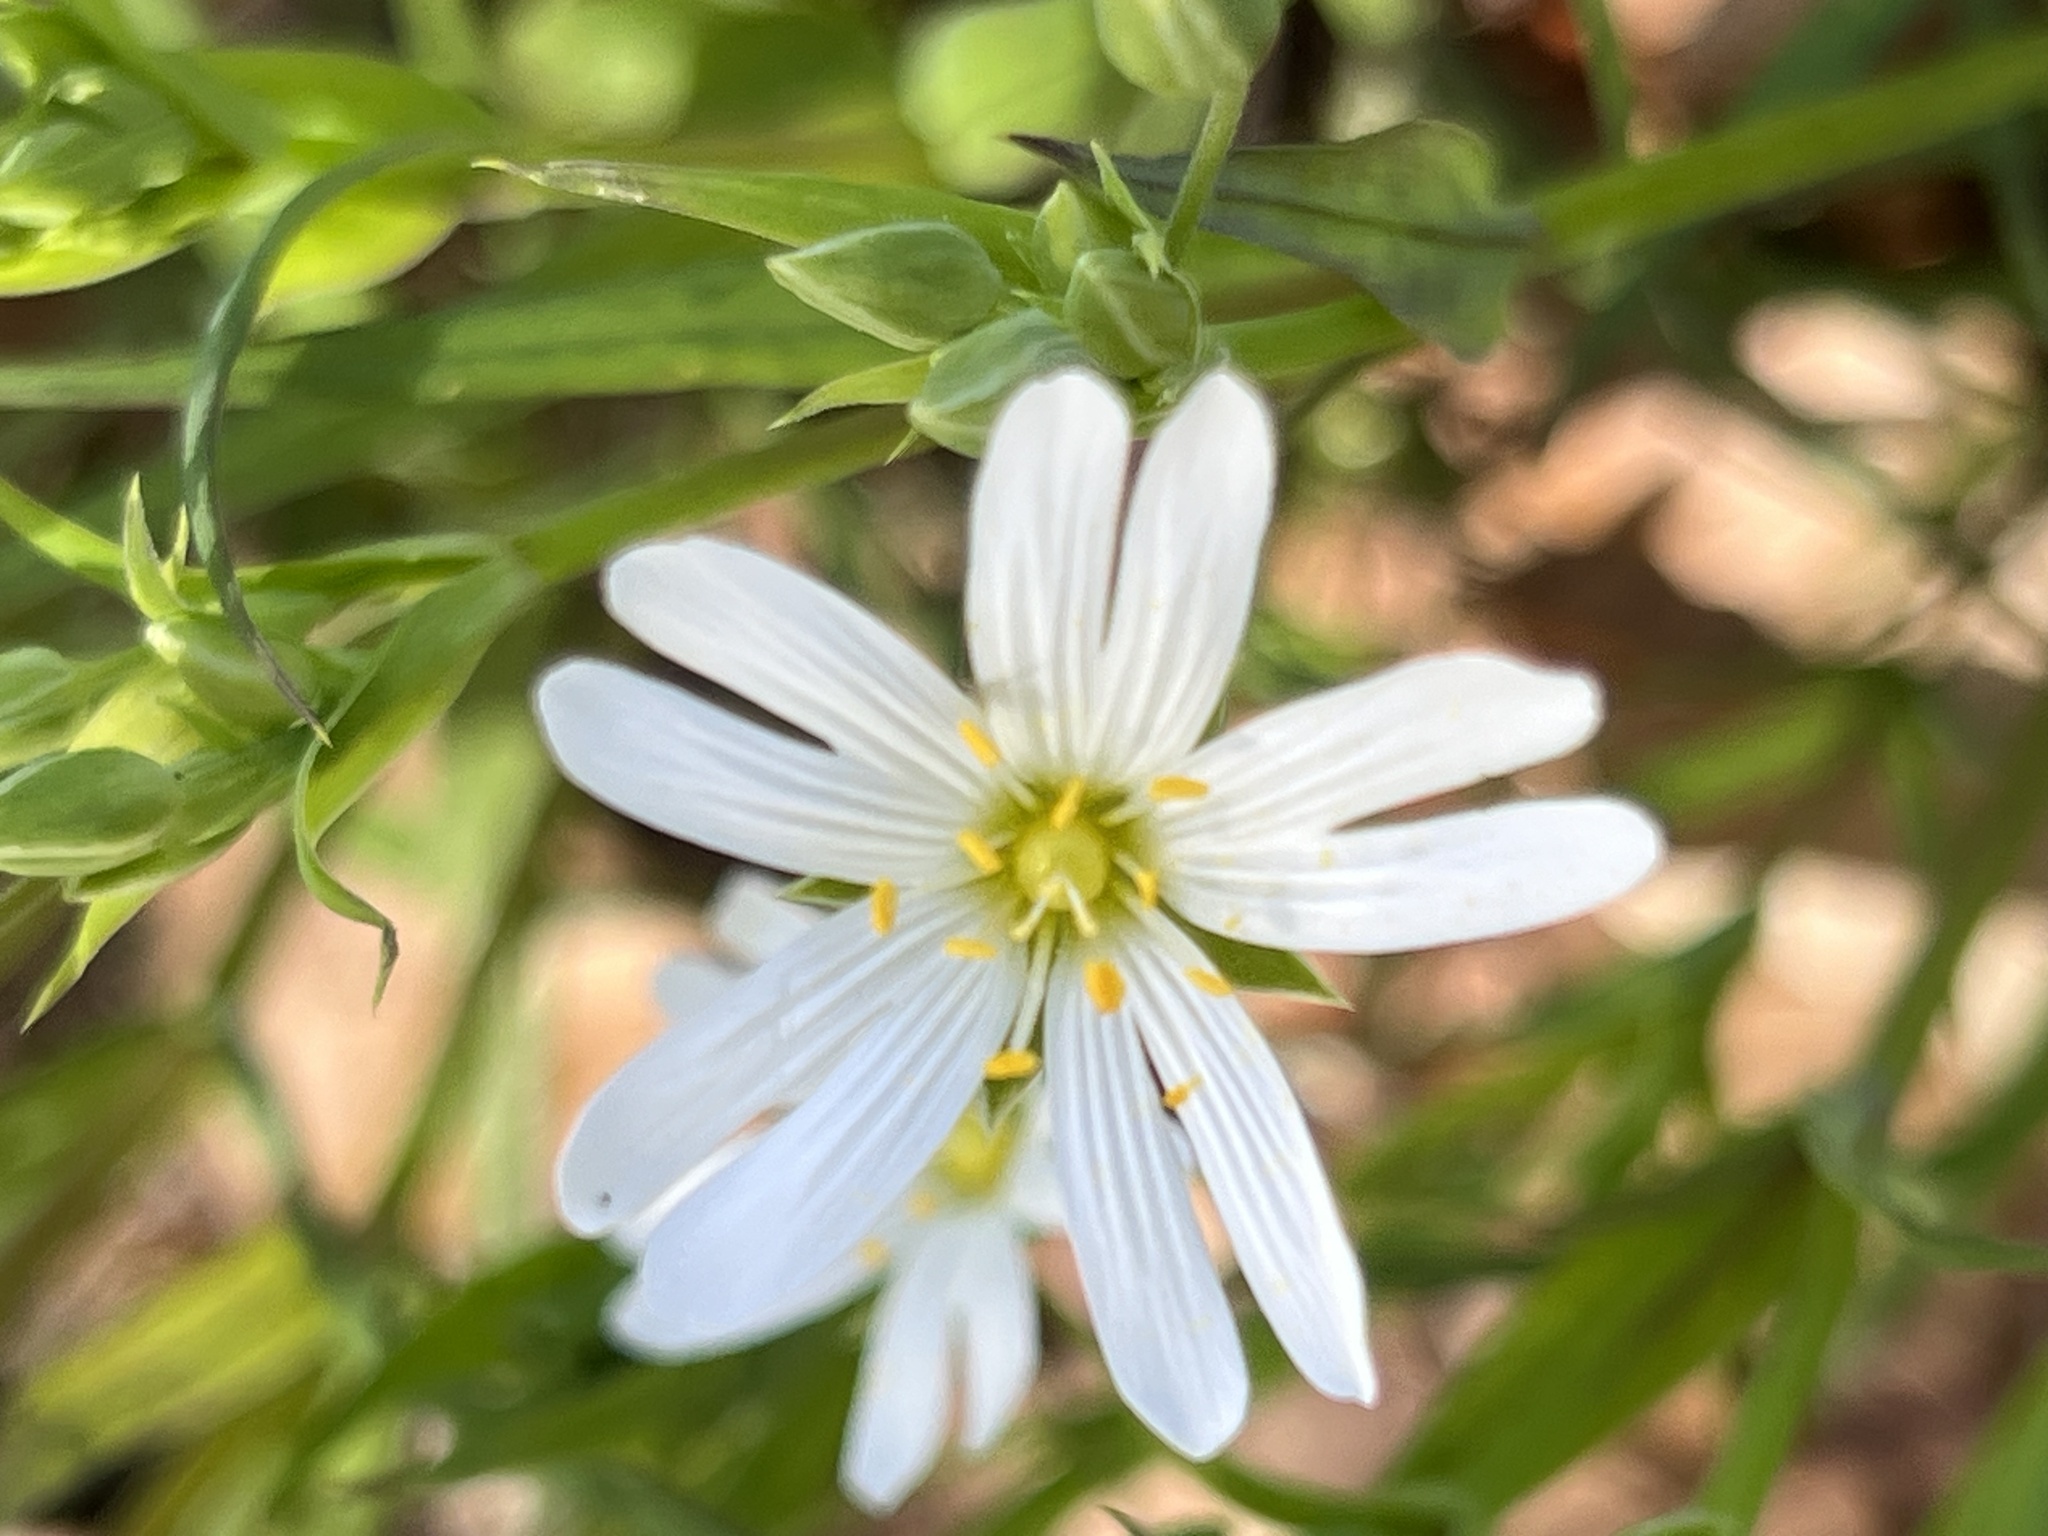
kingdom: Plantae
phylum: Tracheophyta
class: Magnoliopsida
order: Caryophyllales
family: Caryophyllaceae
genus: Rabelera
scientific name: Rabelera holostea
